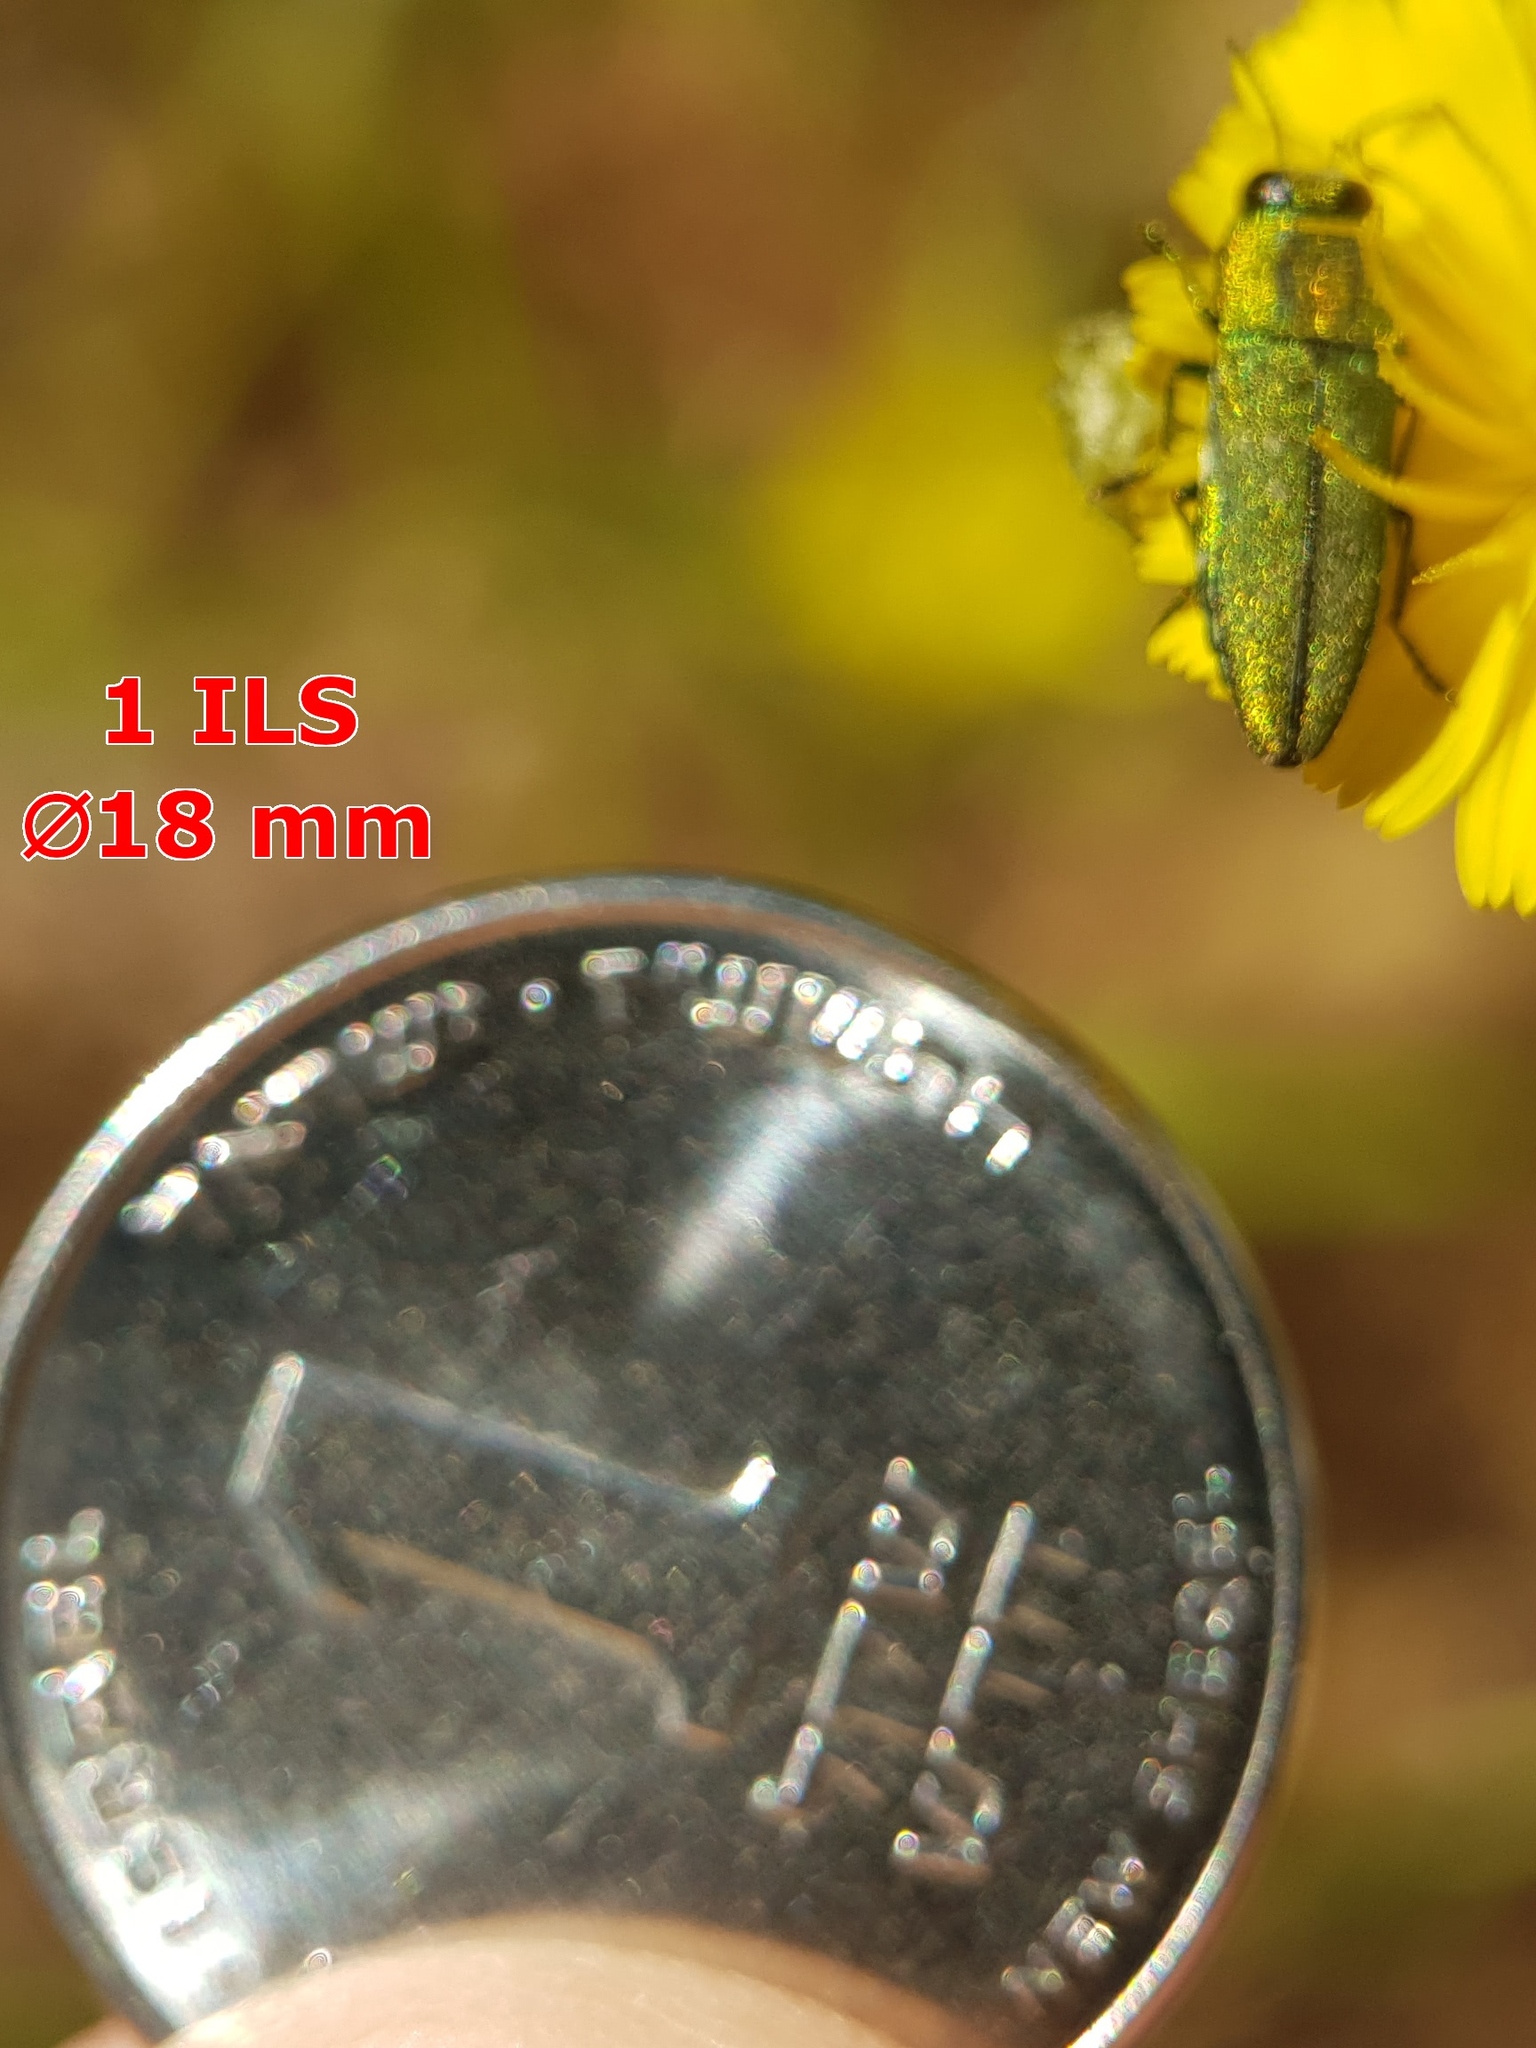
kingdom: Animalia
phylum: Arthropoda
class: Insecta
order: Coleoptera
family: Buprestidae
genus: Anthaxia
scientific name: Anthaxia sponsa
